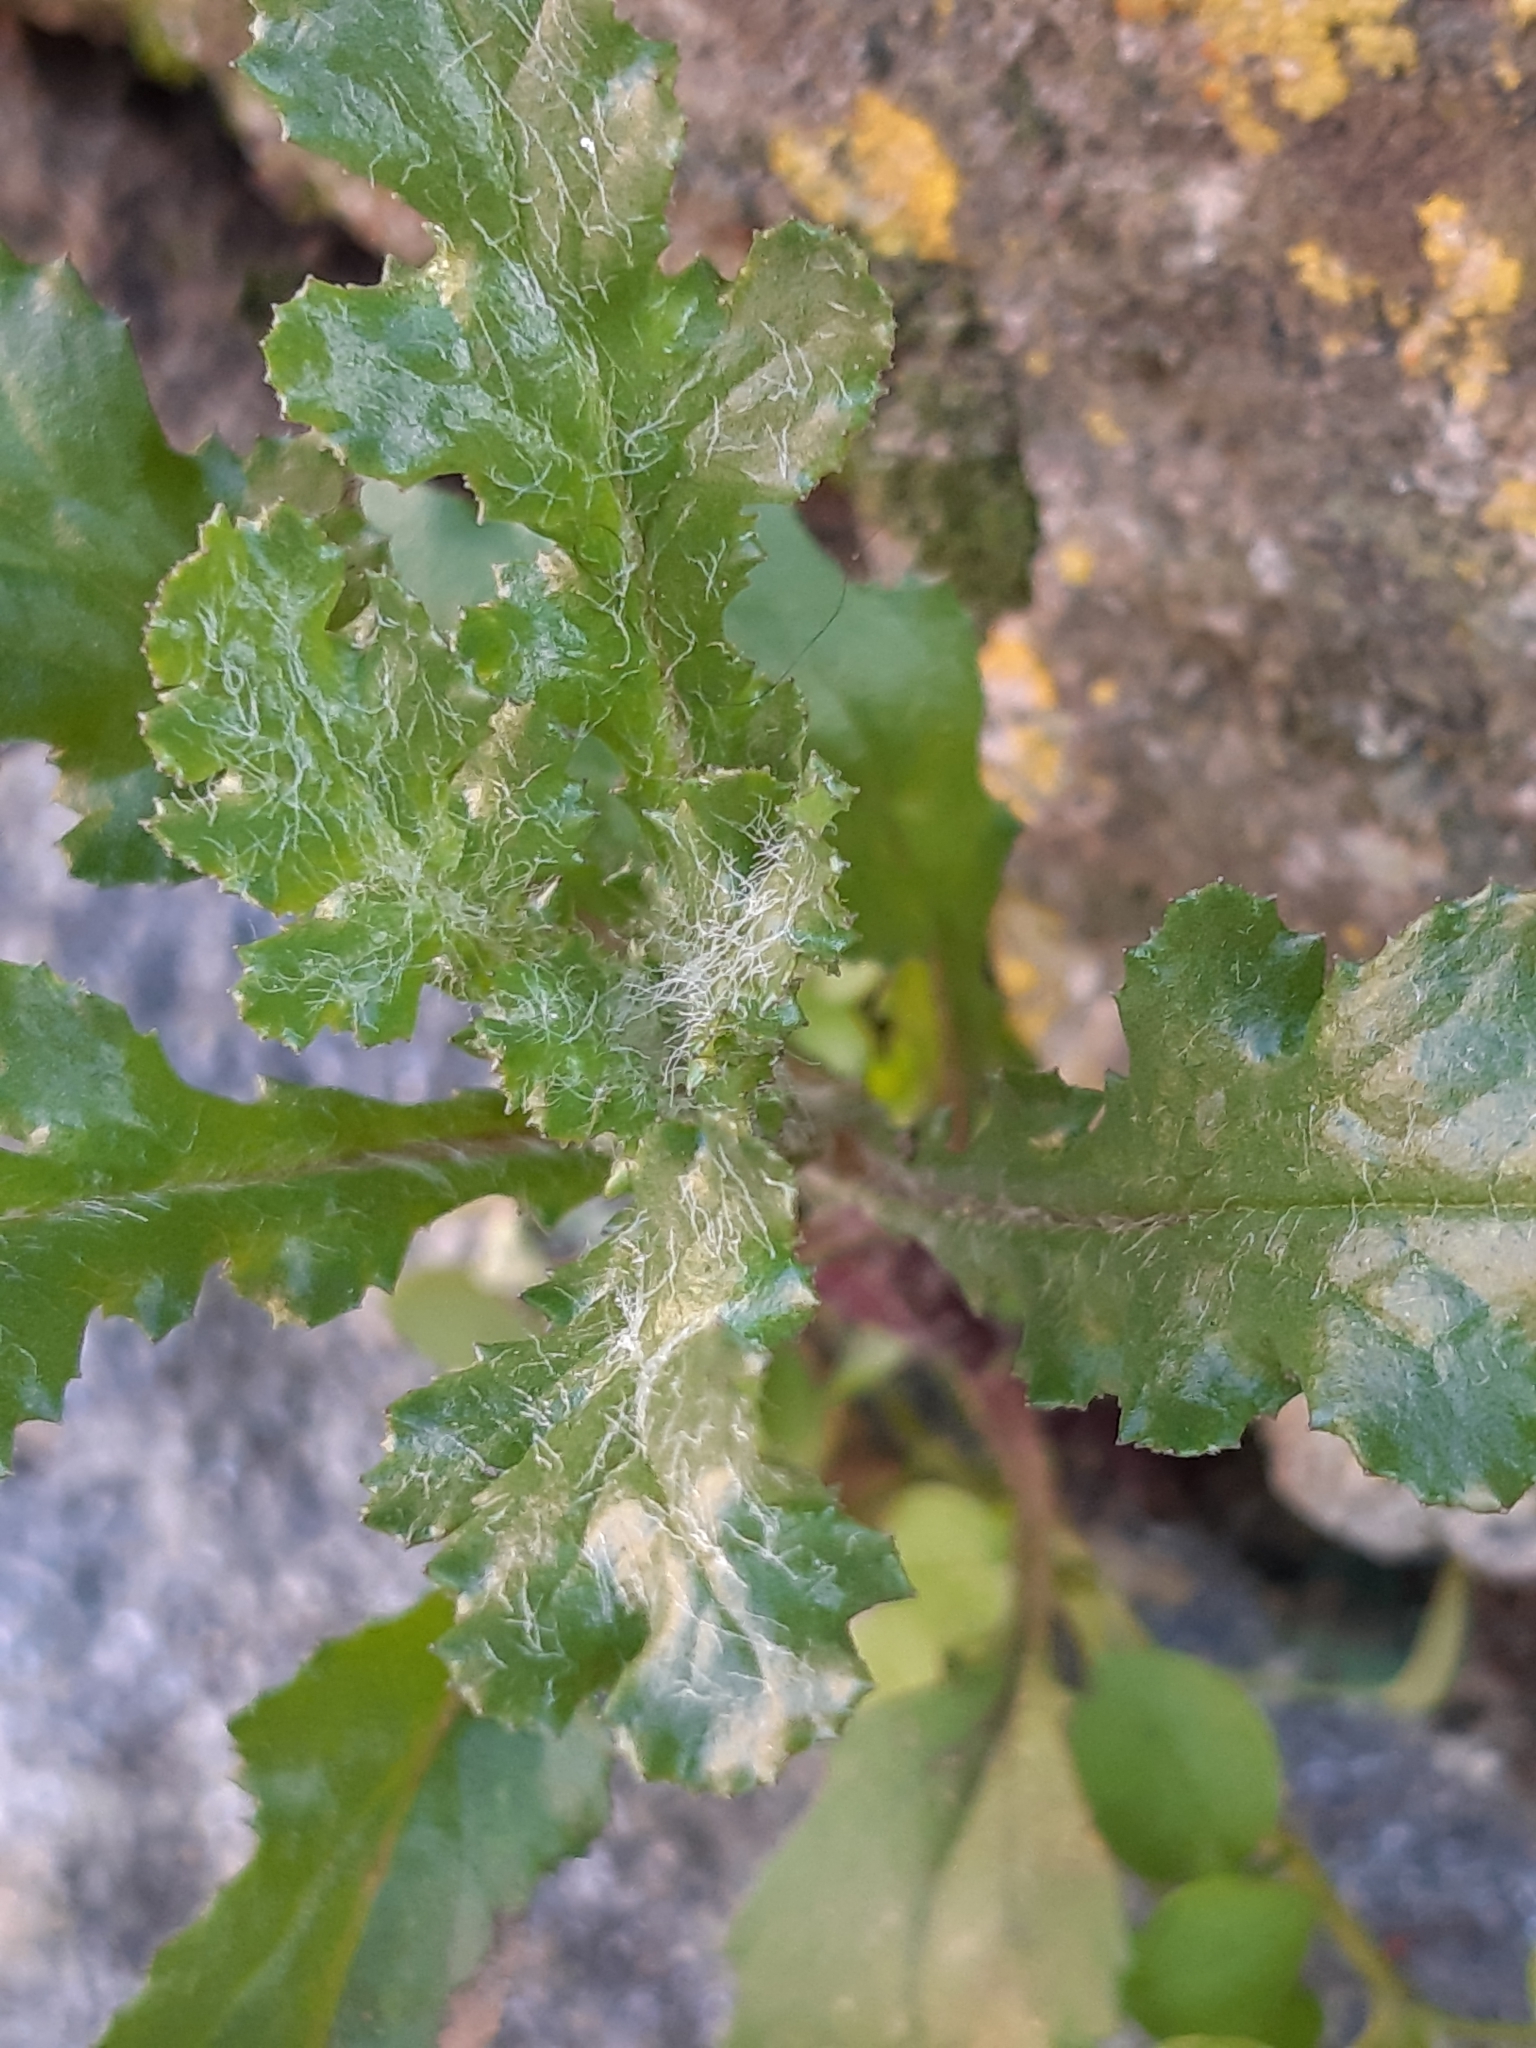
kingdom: Plantae
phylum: Tracheophyta
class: Magnoliopsida
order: Asterales
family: Asteraceae
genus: Senecio
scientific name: Senecio vulgaris
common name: Old-man-in-the-spring
